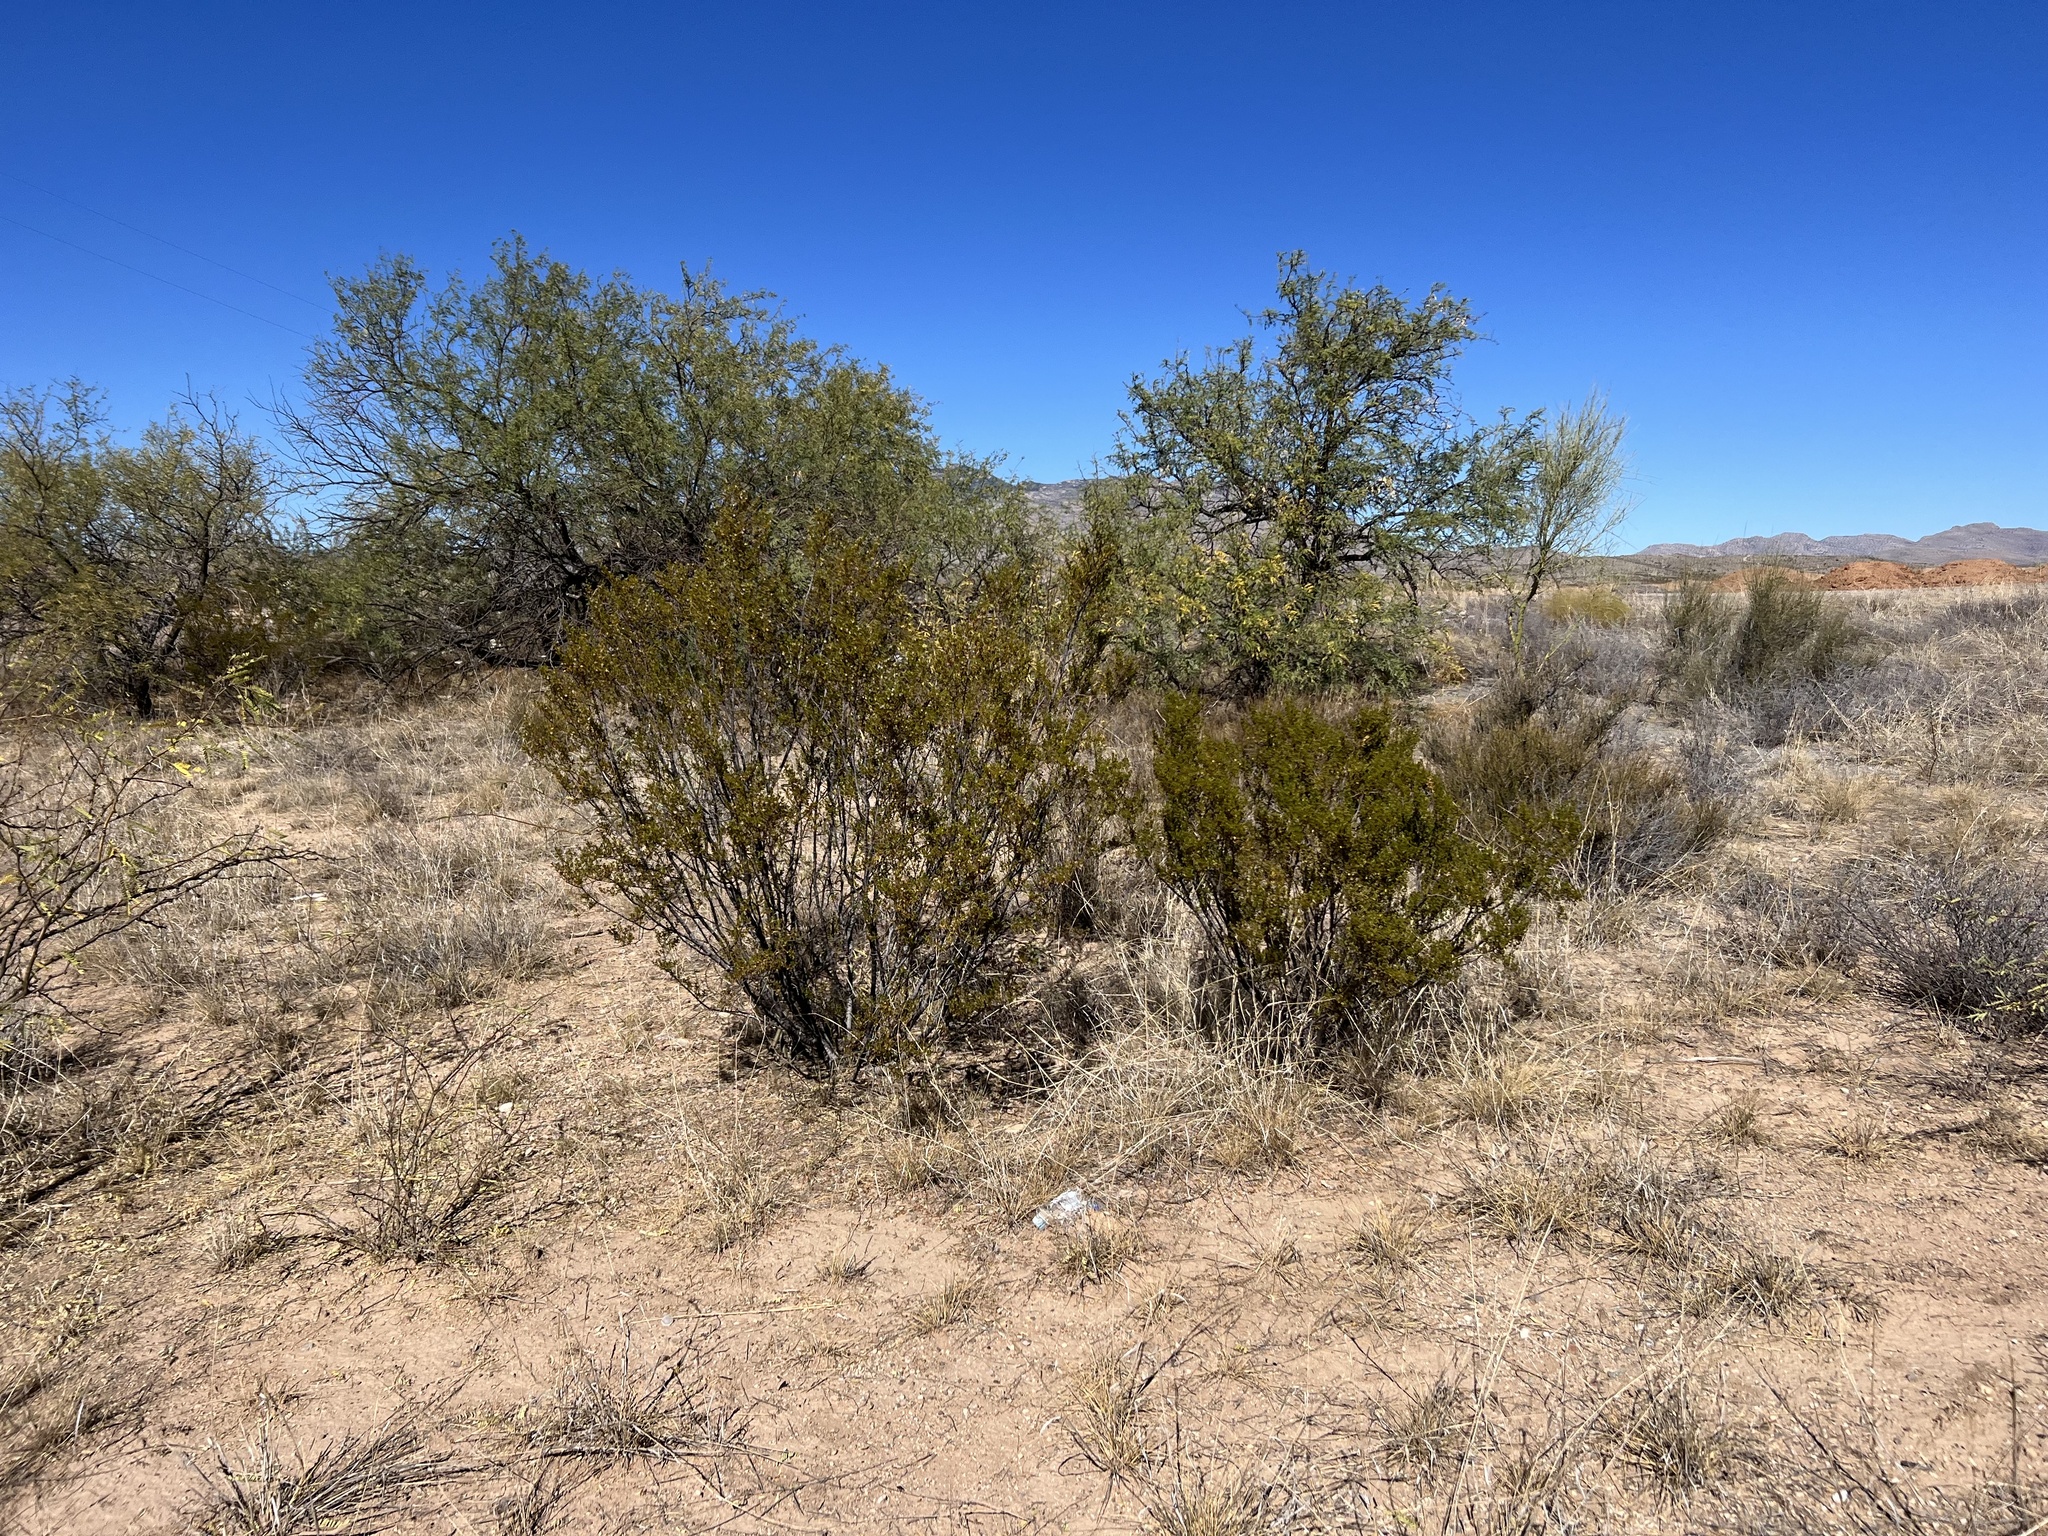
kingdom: Plantae
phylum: Tracheophyta
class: Magnoliopsida
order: Zygophyllales
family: Zygophyllaceae
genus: Larrea
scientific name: Larrea tridentata
